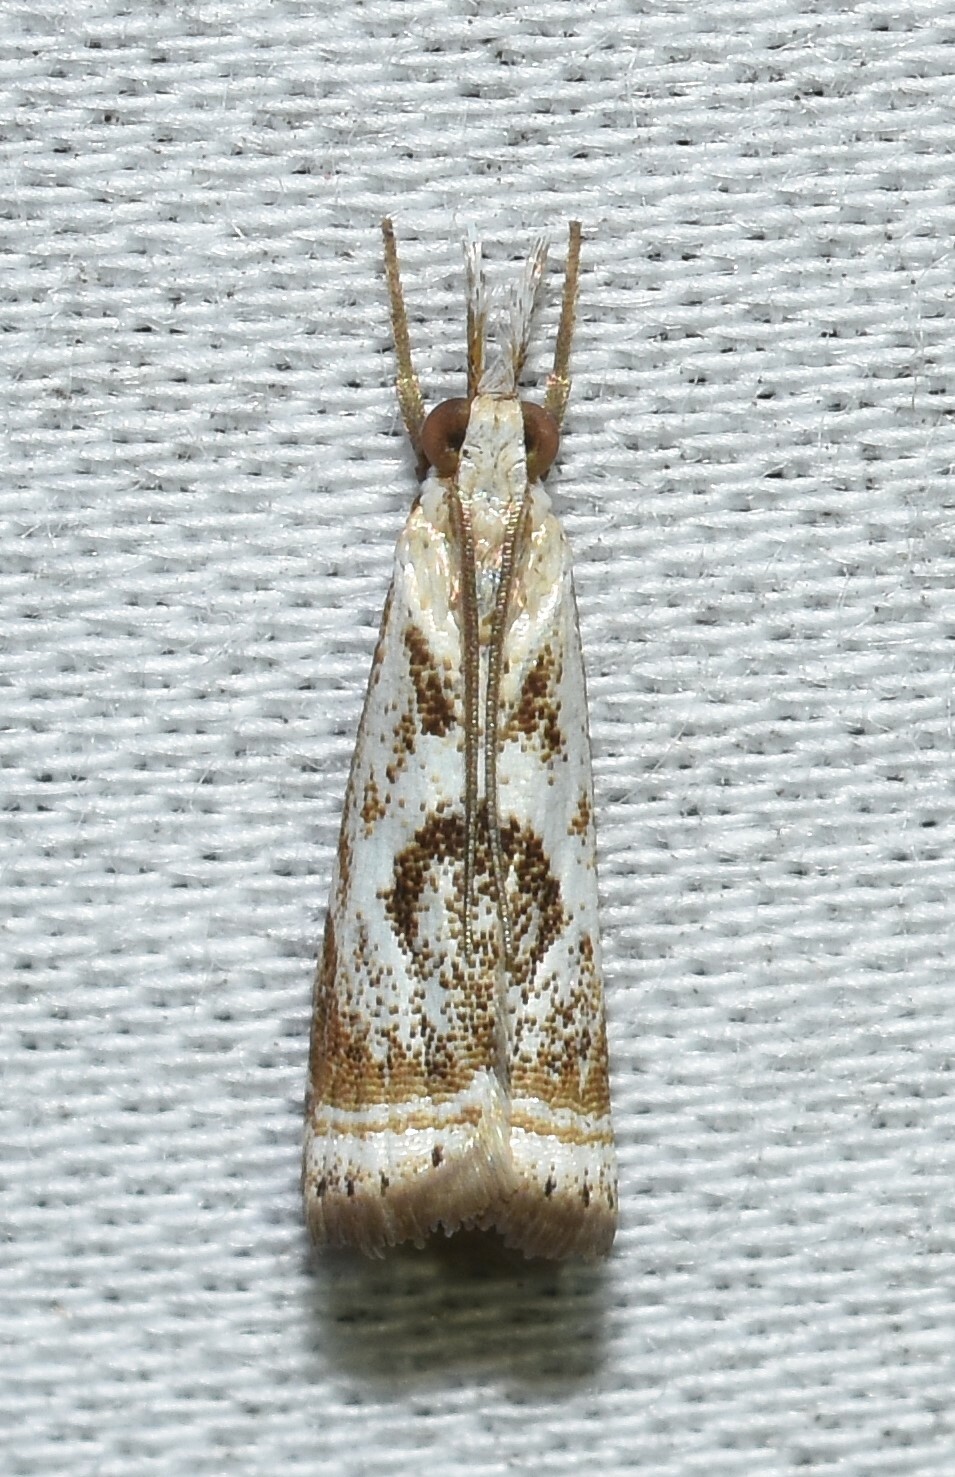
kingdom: Animalia
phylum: Arthropoda
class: Insecta
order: Lepidoptera
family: Crambidae
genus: Microcrambus
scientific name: Microcrambus elegans
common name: Elegant grass-veneer
